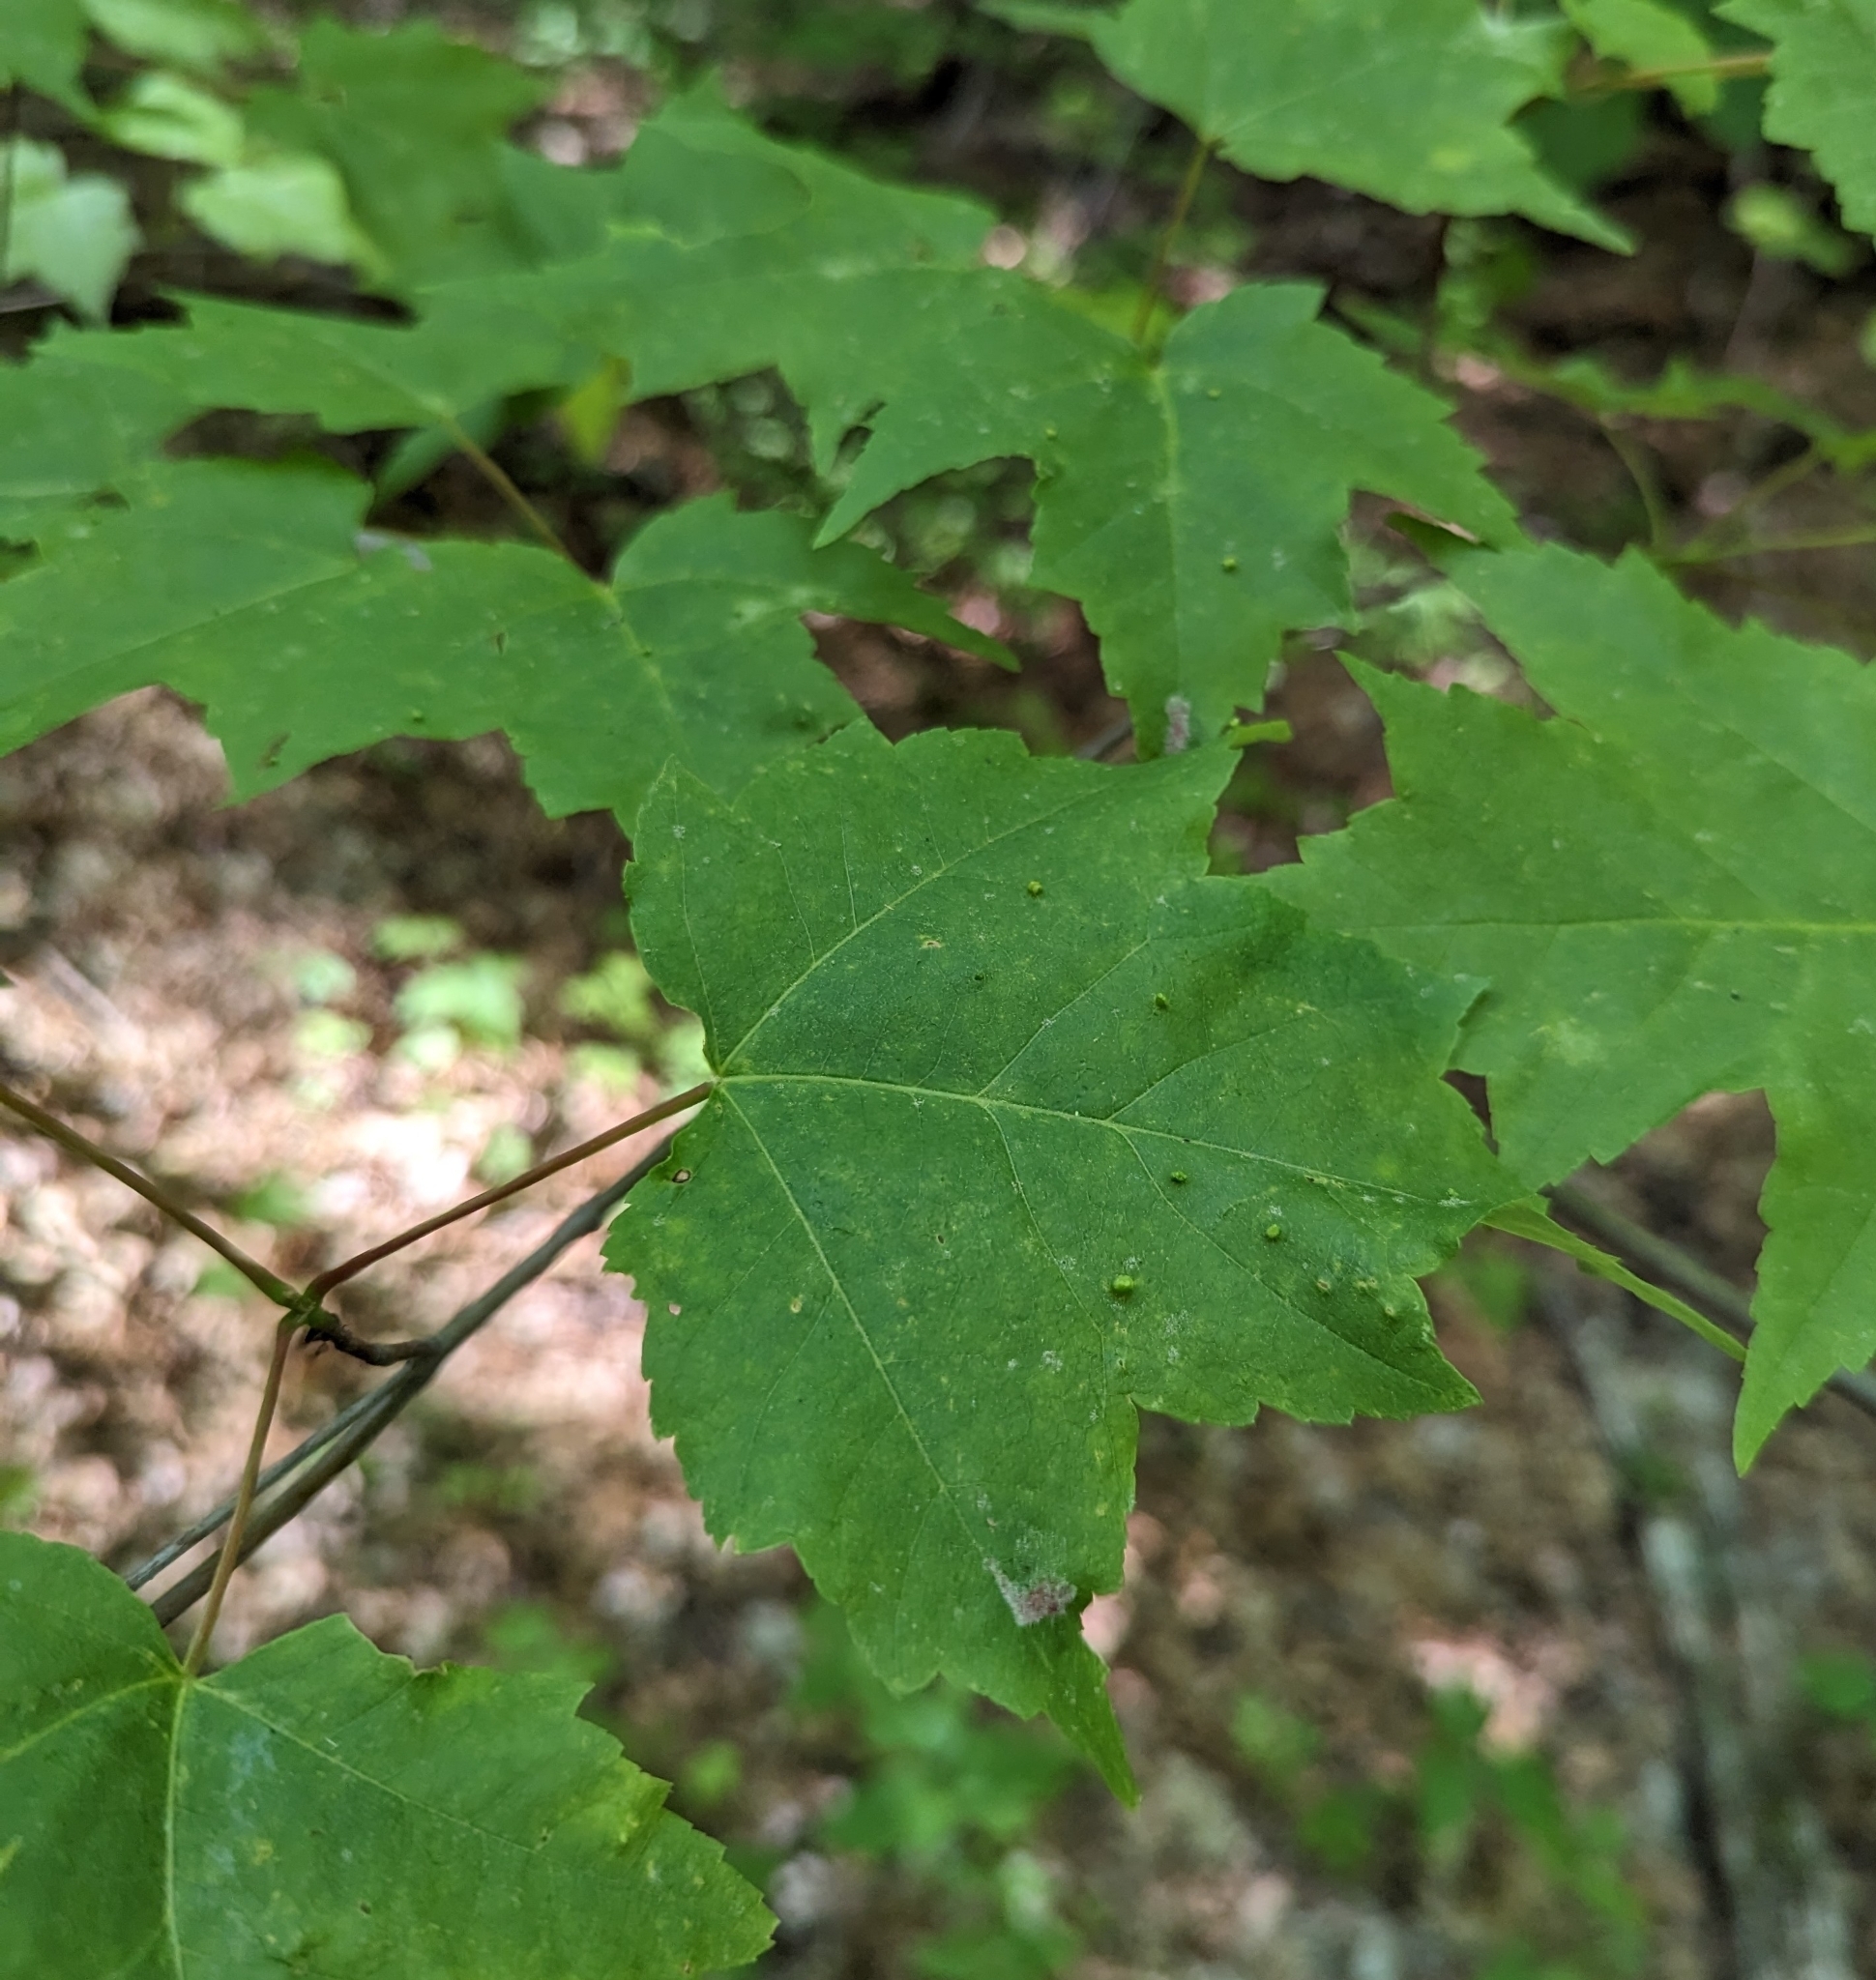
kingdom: Plantae
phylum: Tracheophyta
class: Magnoliopsida
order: Sapindales
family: Sapindaceae
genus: Acer
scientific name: Acer rubrum
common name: Red maple
